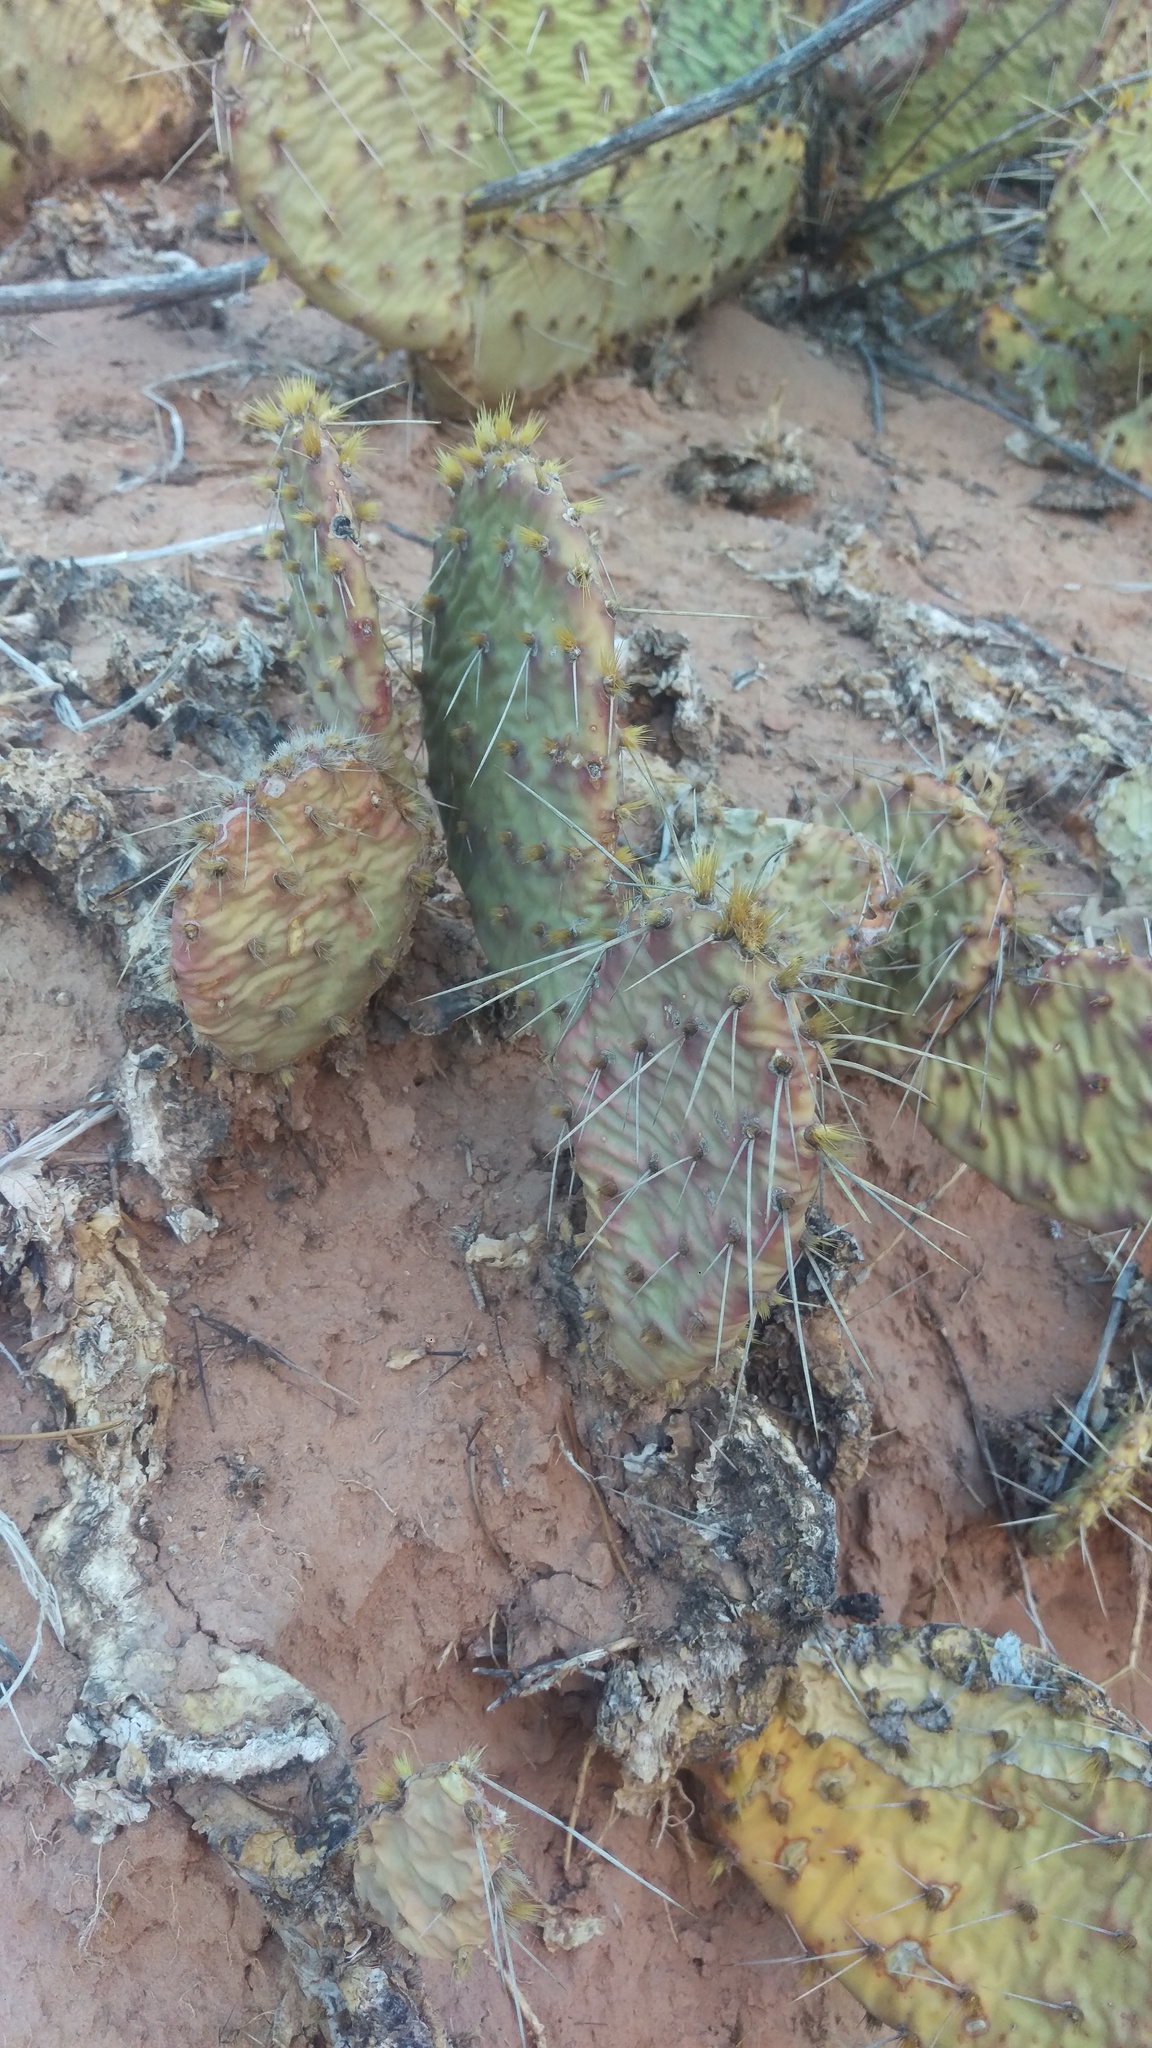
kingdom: Plantae
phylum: Tracheophyta
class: Magnoliopsida
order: Caryophyllales
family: Cactaceae
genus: Opuntia
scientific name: Opuntia polyacantha
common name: Plains prickly-pear
